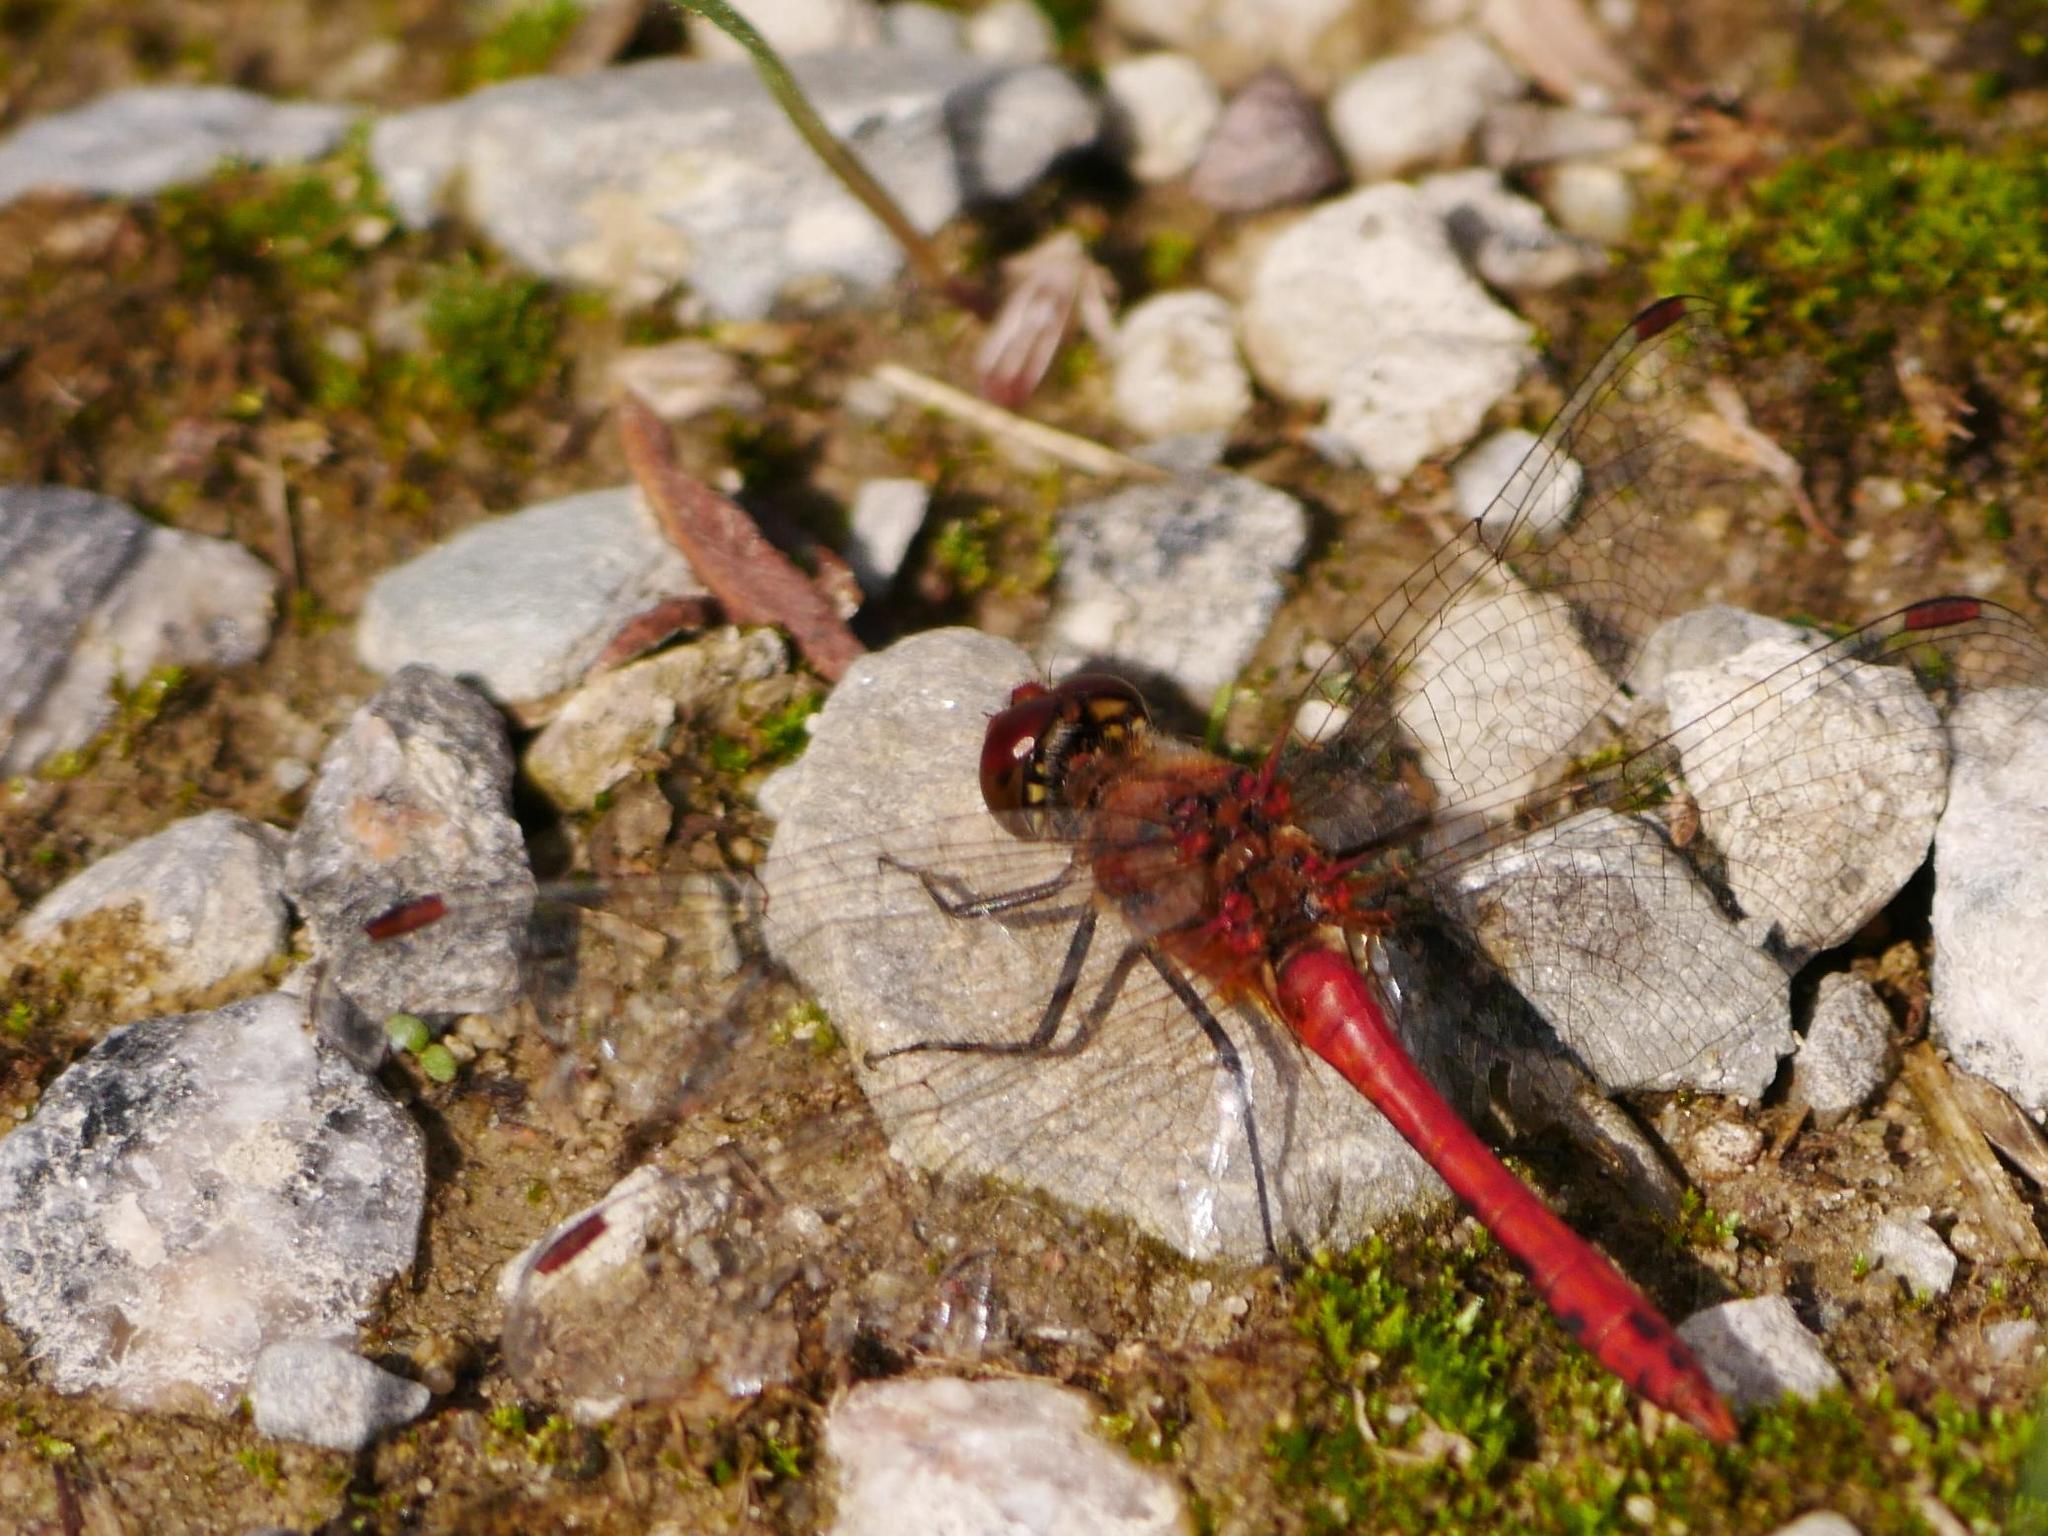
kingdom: Animalia
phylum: Arthropoda
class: Insecta
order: Odonata
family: Libellulidae
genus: Sympetrum
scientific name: Sympetrum sanguineum
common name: Ruddy darter
